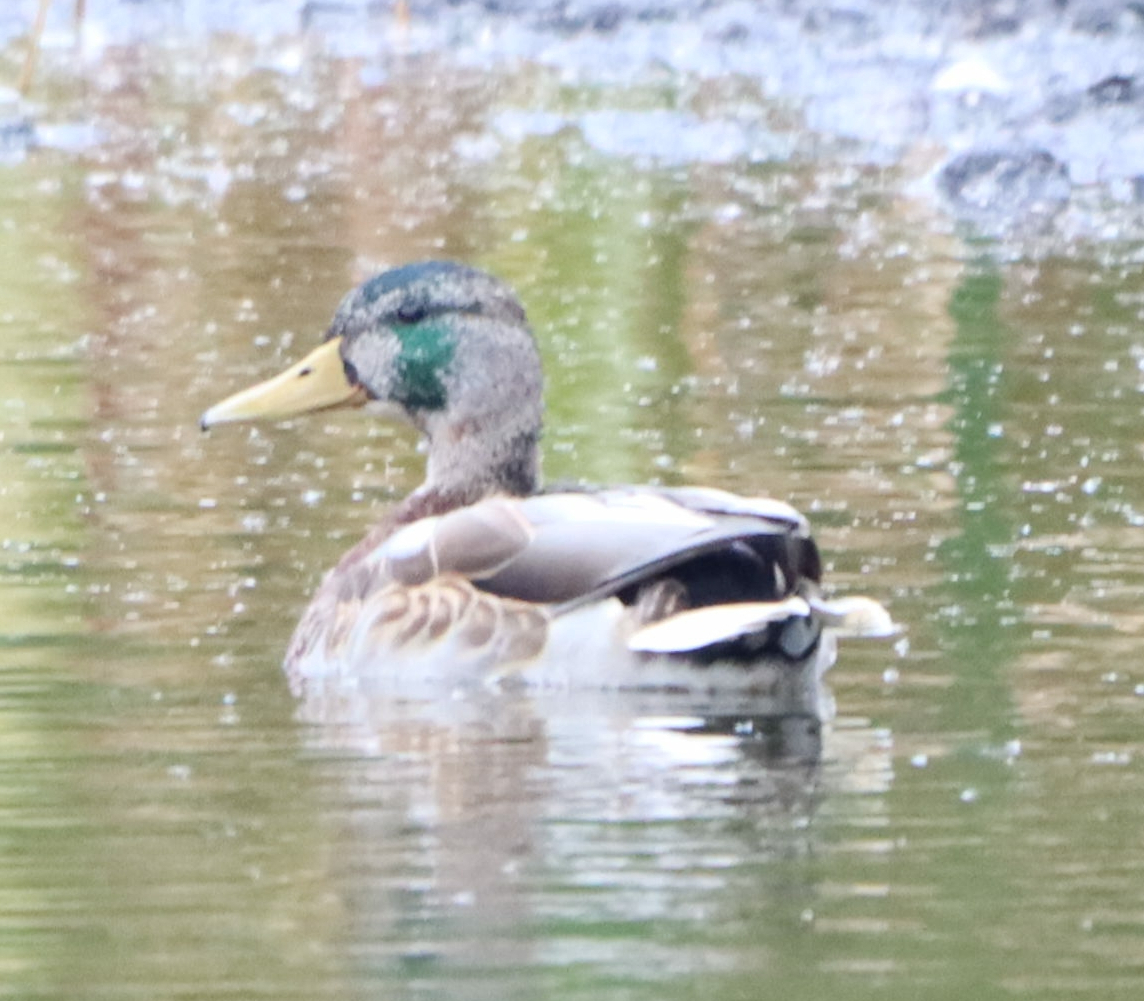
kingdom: Animalia
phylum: Chordata
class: Aves
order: Anseriformes
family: Anatidae
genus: Anas
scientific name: Anas platyrhynchos
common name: Mallard
